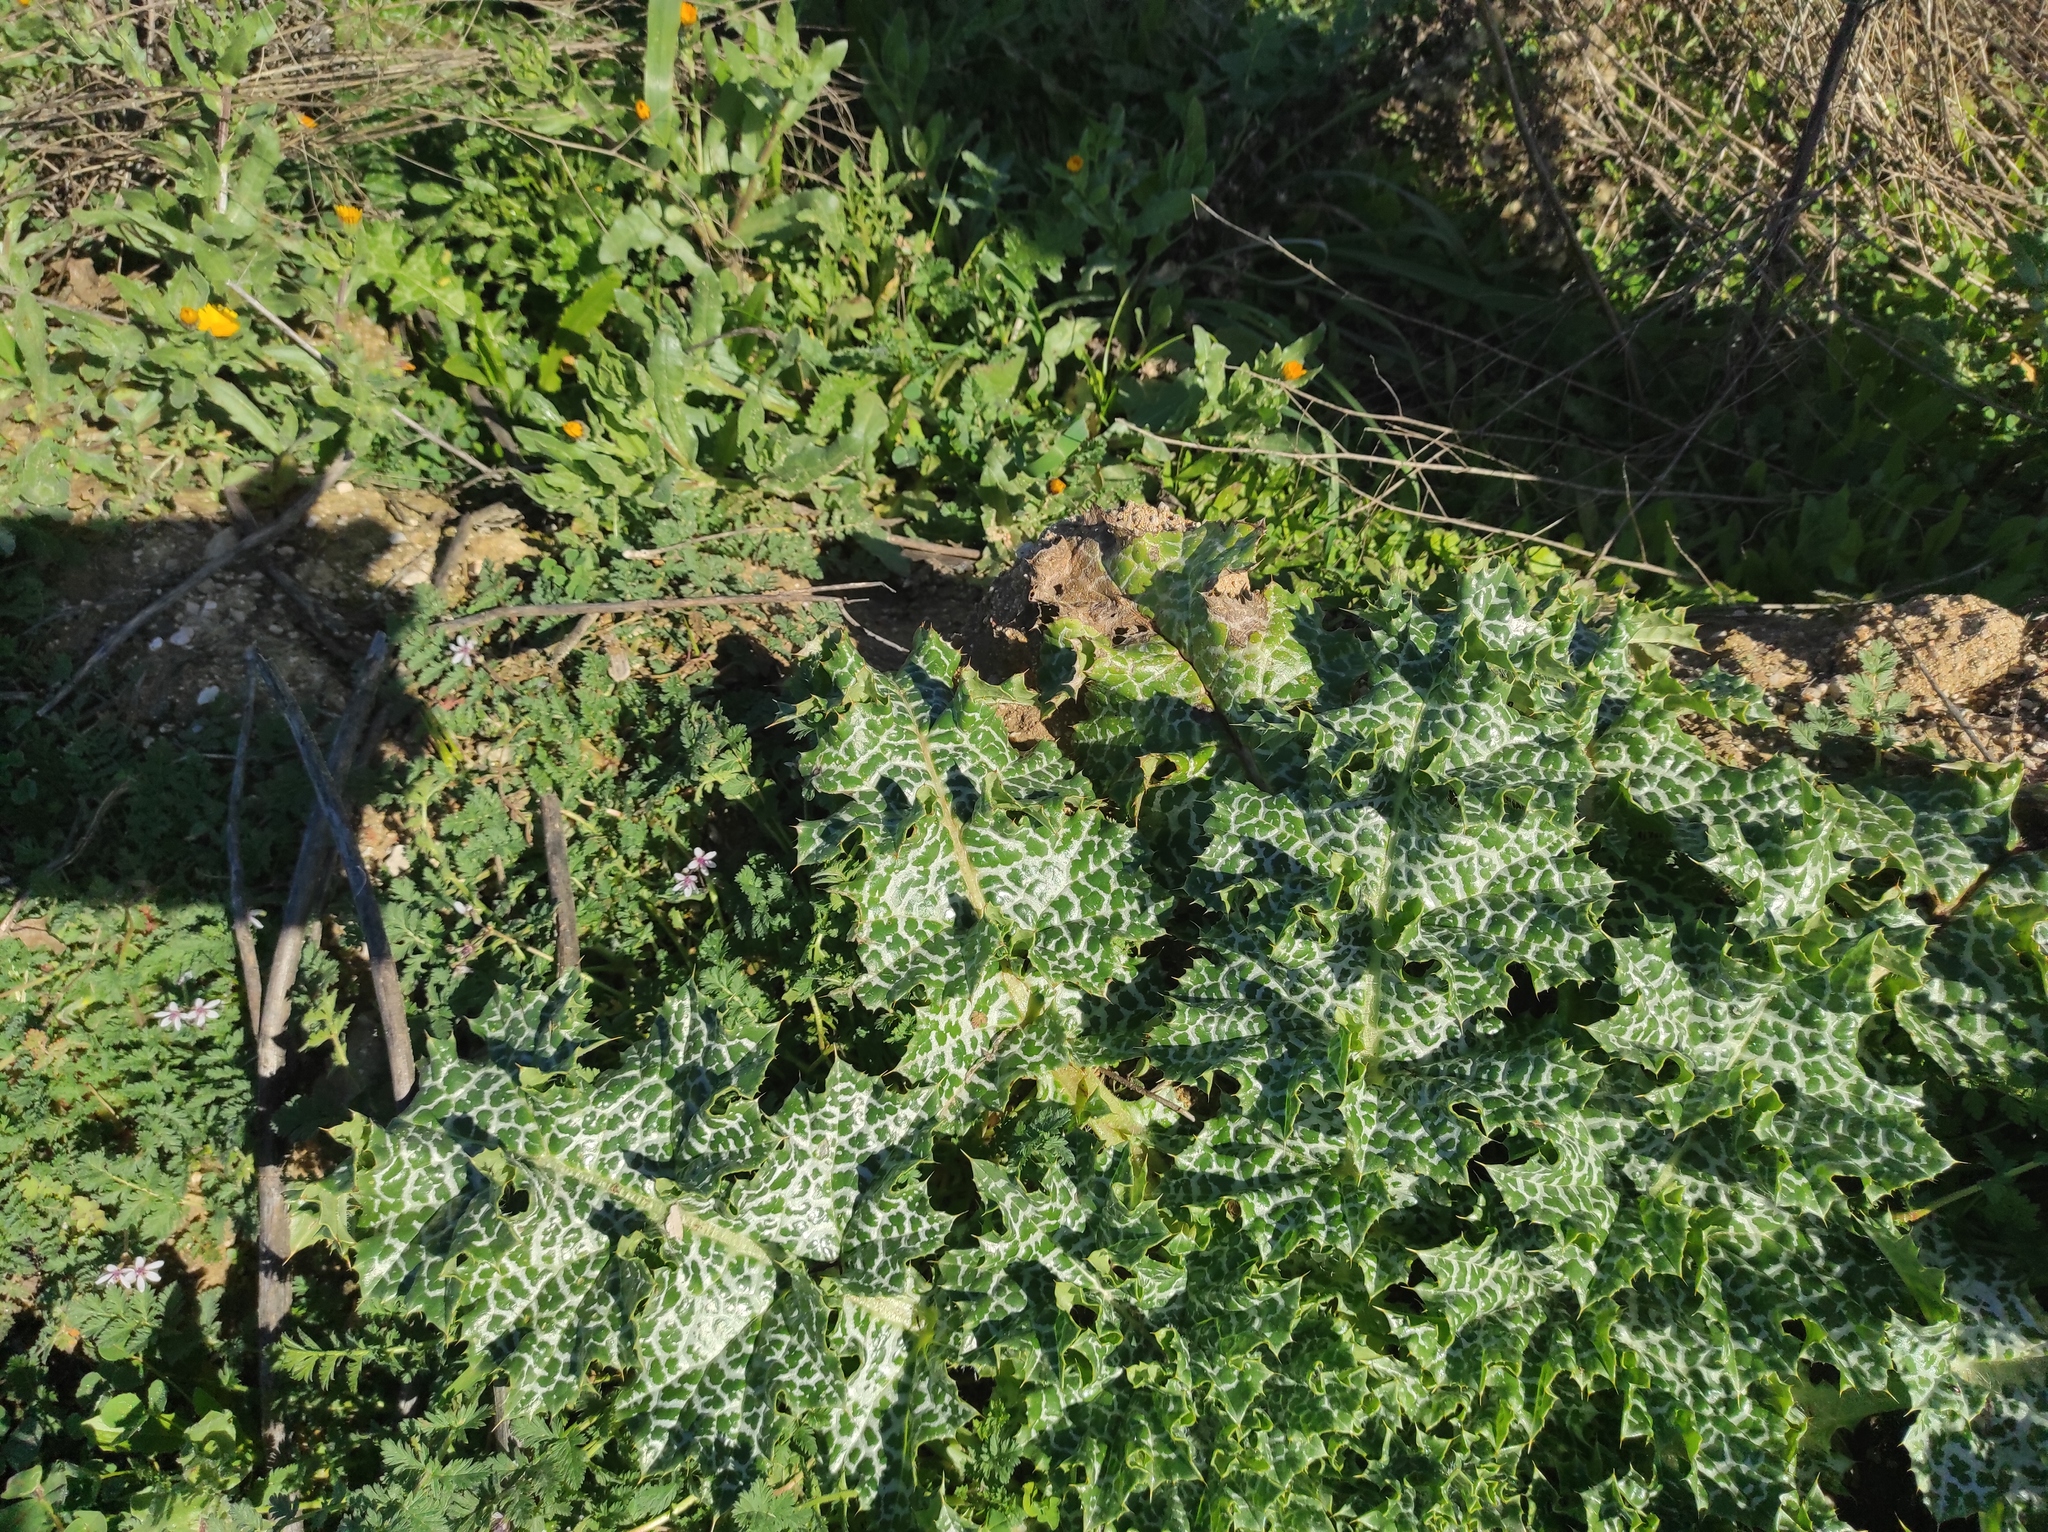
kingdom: Plantae
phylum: Tracheophyta
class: Magnoliopsida
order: Asterales
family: Asteraceae
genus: Silybum
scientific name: Silybum marianum
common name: Milk thistle
